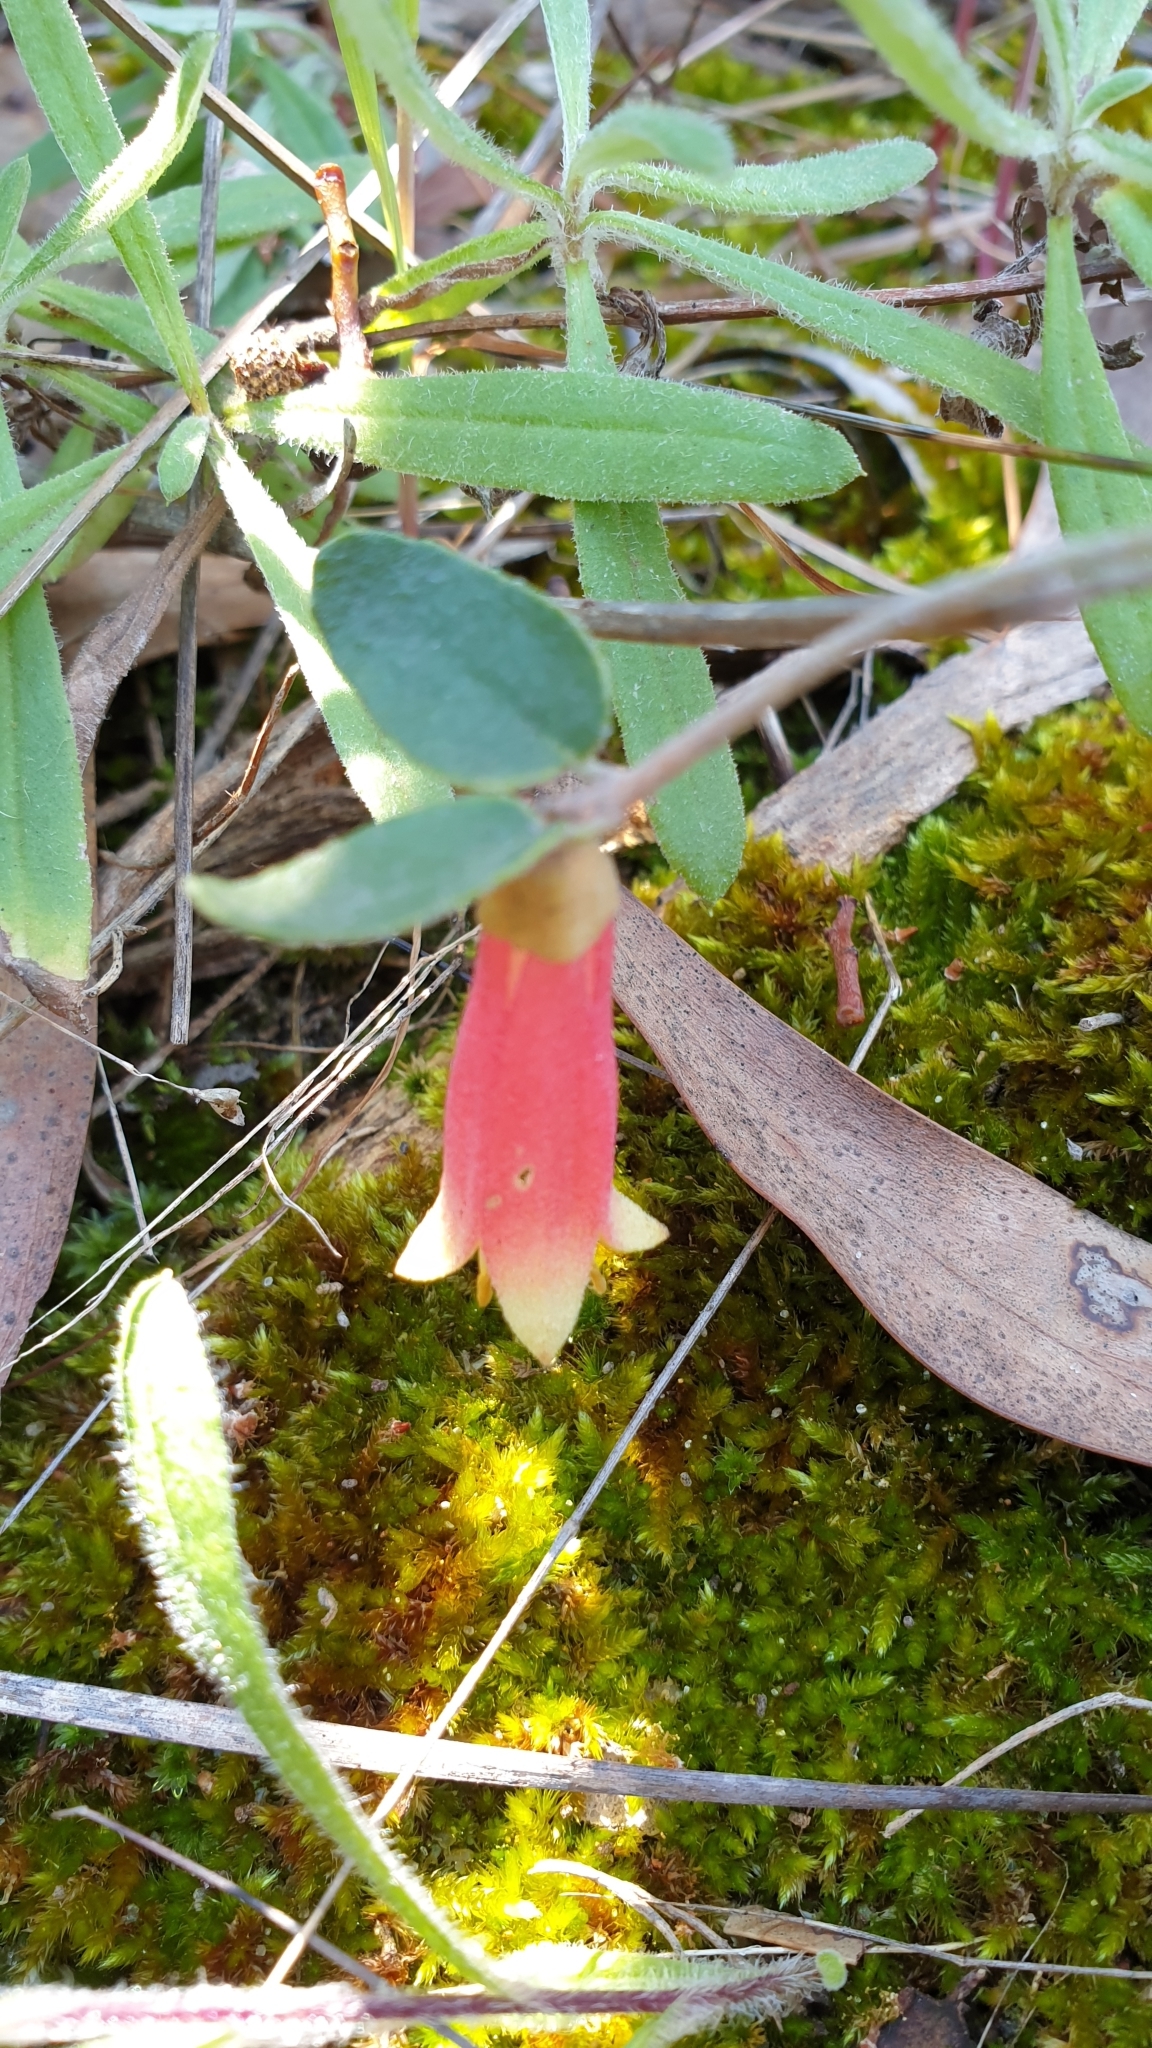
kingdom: Plantae
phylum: Tracheophyta
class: Magnoliopsida
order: Sapindales
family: Rutaceae
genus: Correa
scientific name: Correa reflexa
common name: Common correa
